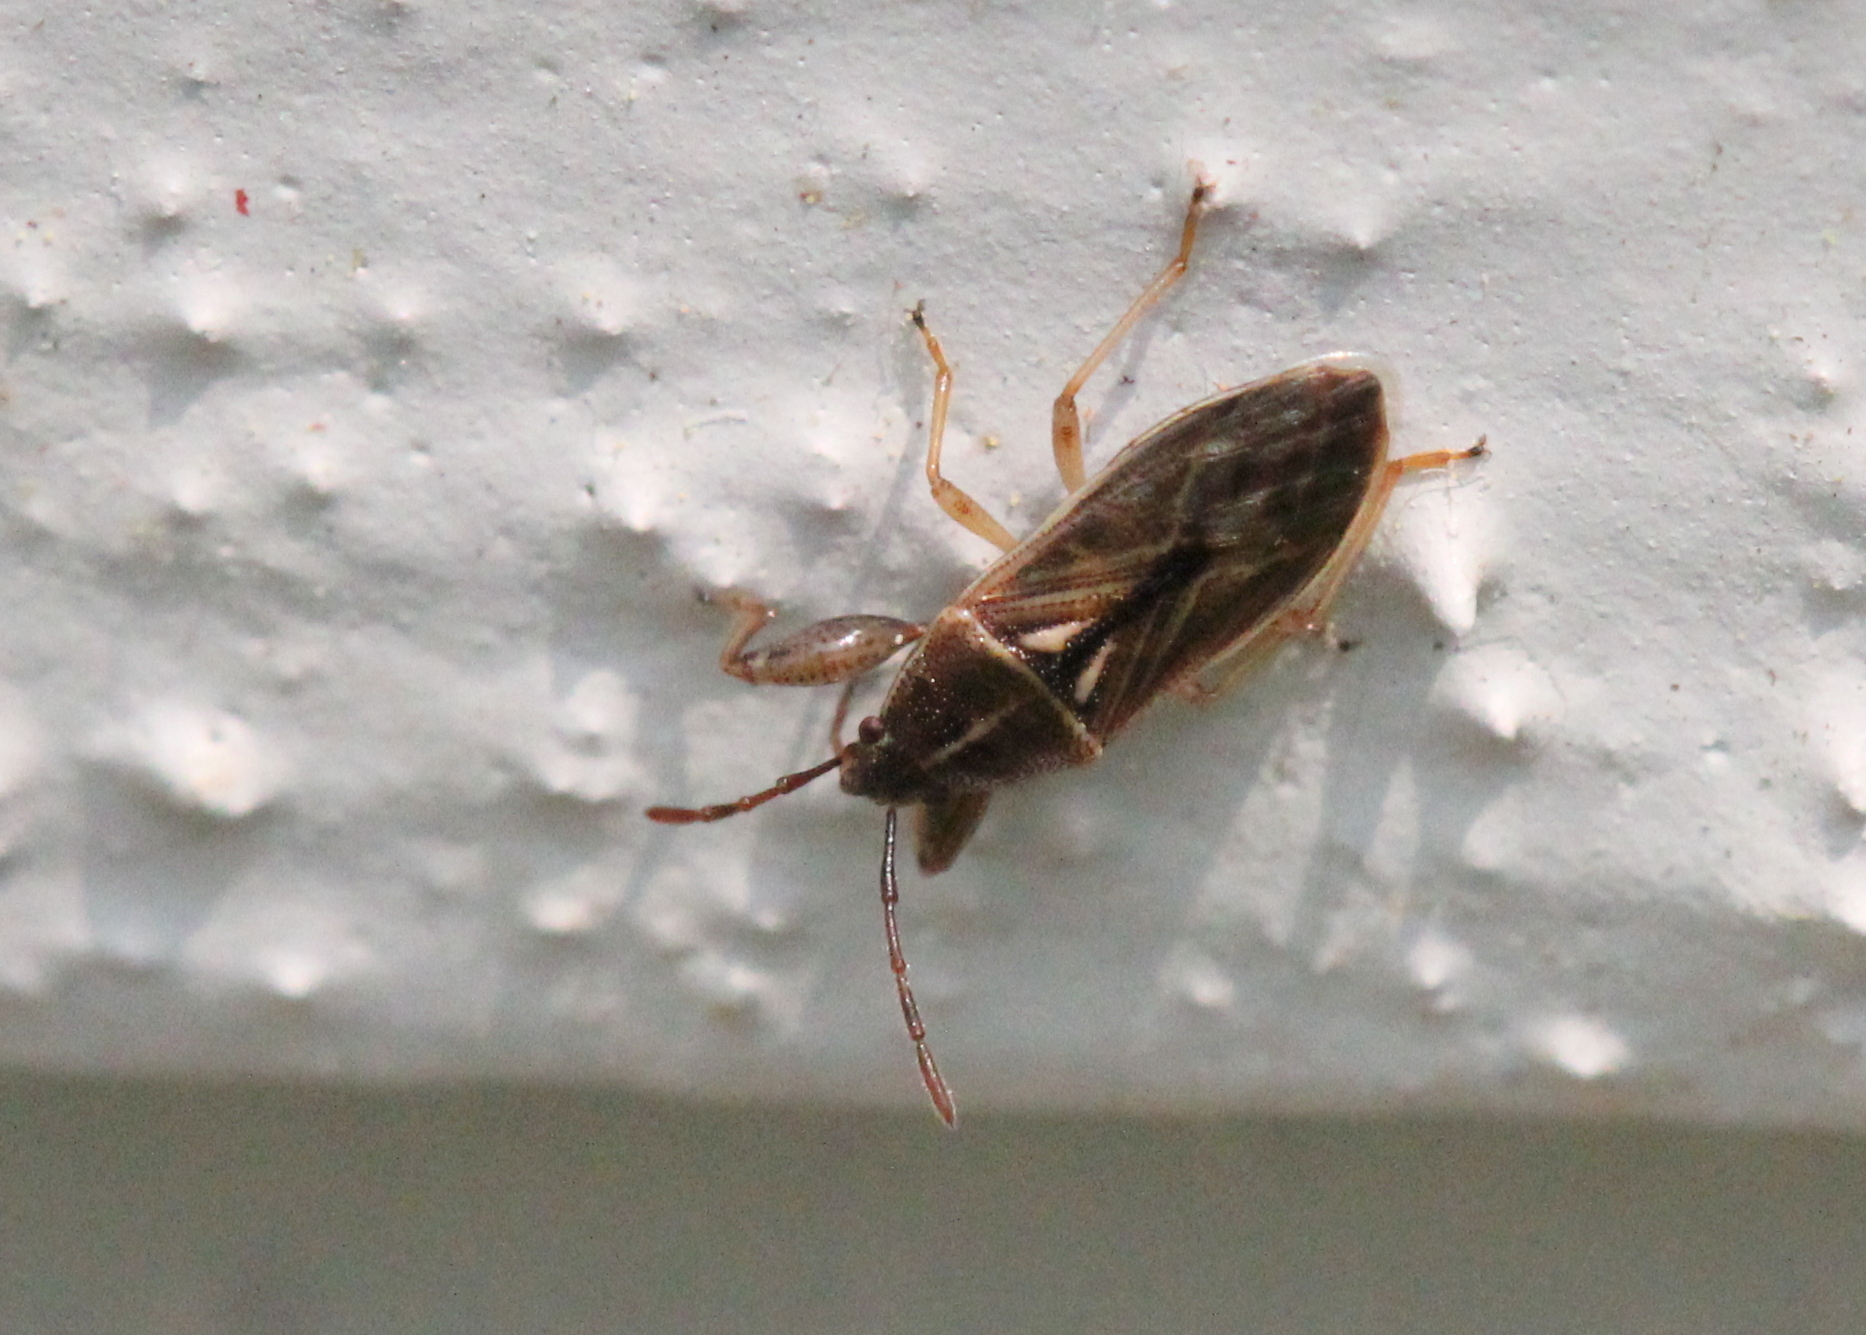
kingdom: Animalia
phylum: Arthropoda
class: Insecta
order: Hemiptera
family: Pachygronthidae
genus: Oedancala
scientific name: Oedancala dorsalis
